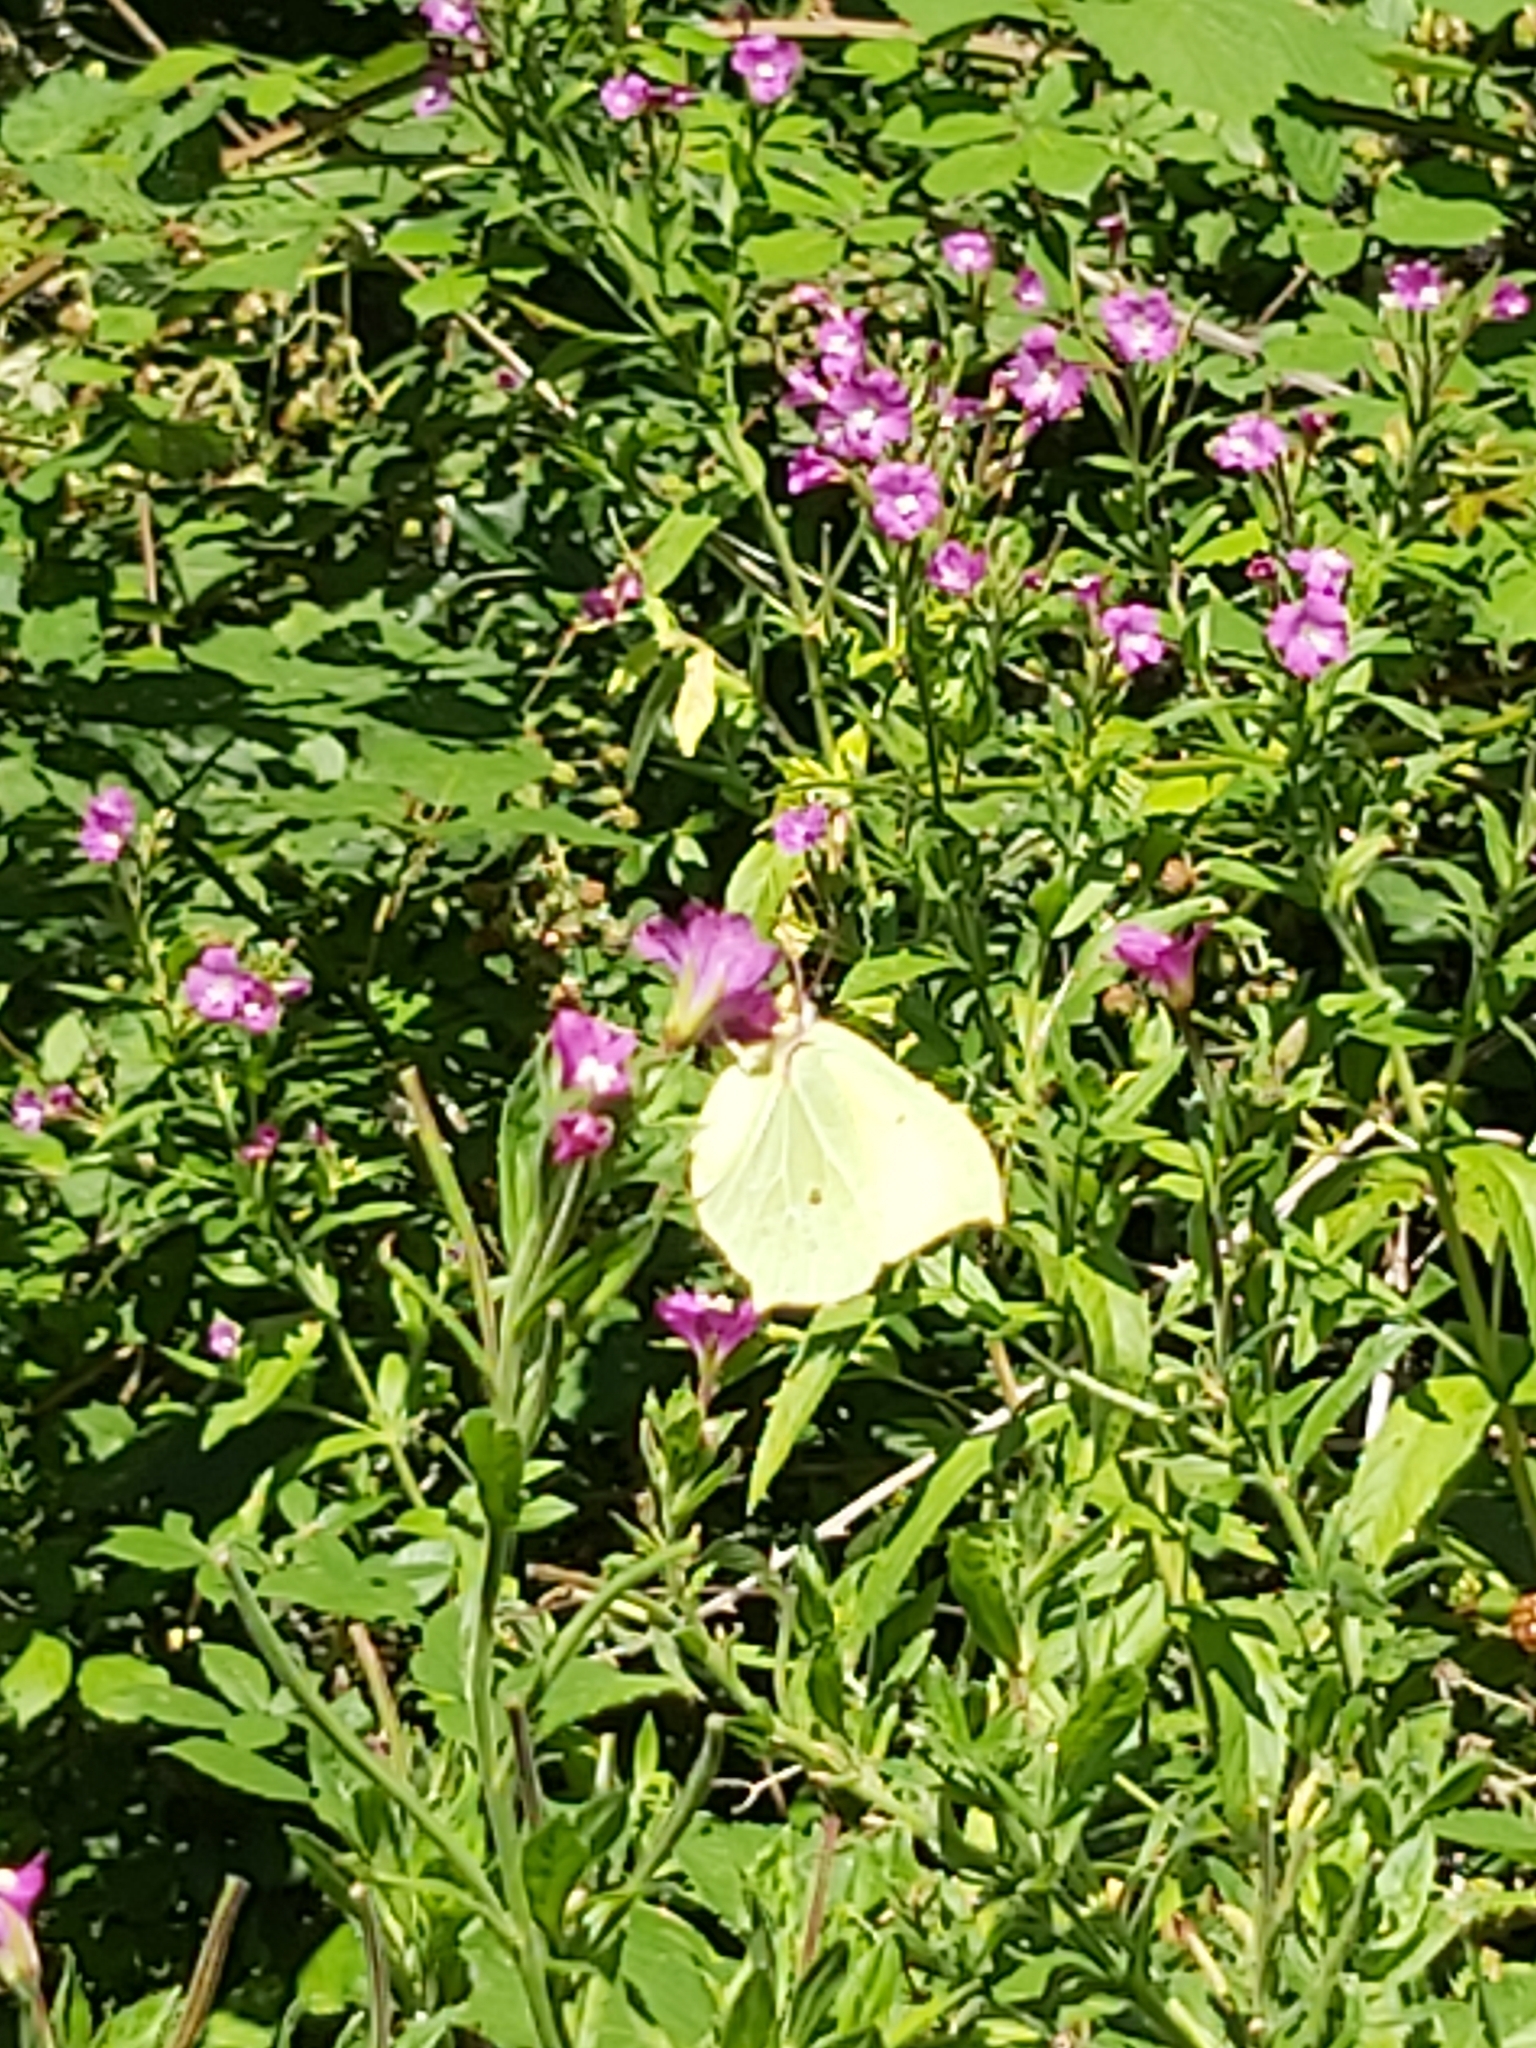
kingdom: Animalia
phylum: Arthropoda
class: Insecta
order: Lepidoptera
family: Pieridae
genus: Gonepteryx
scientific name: Gonepteryx rhamni
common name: Brimstone
